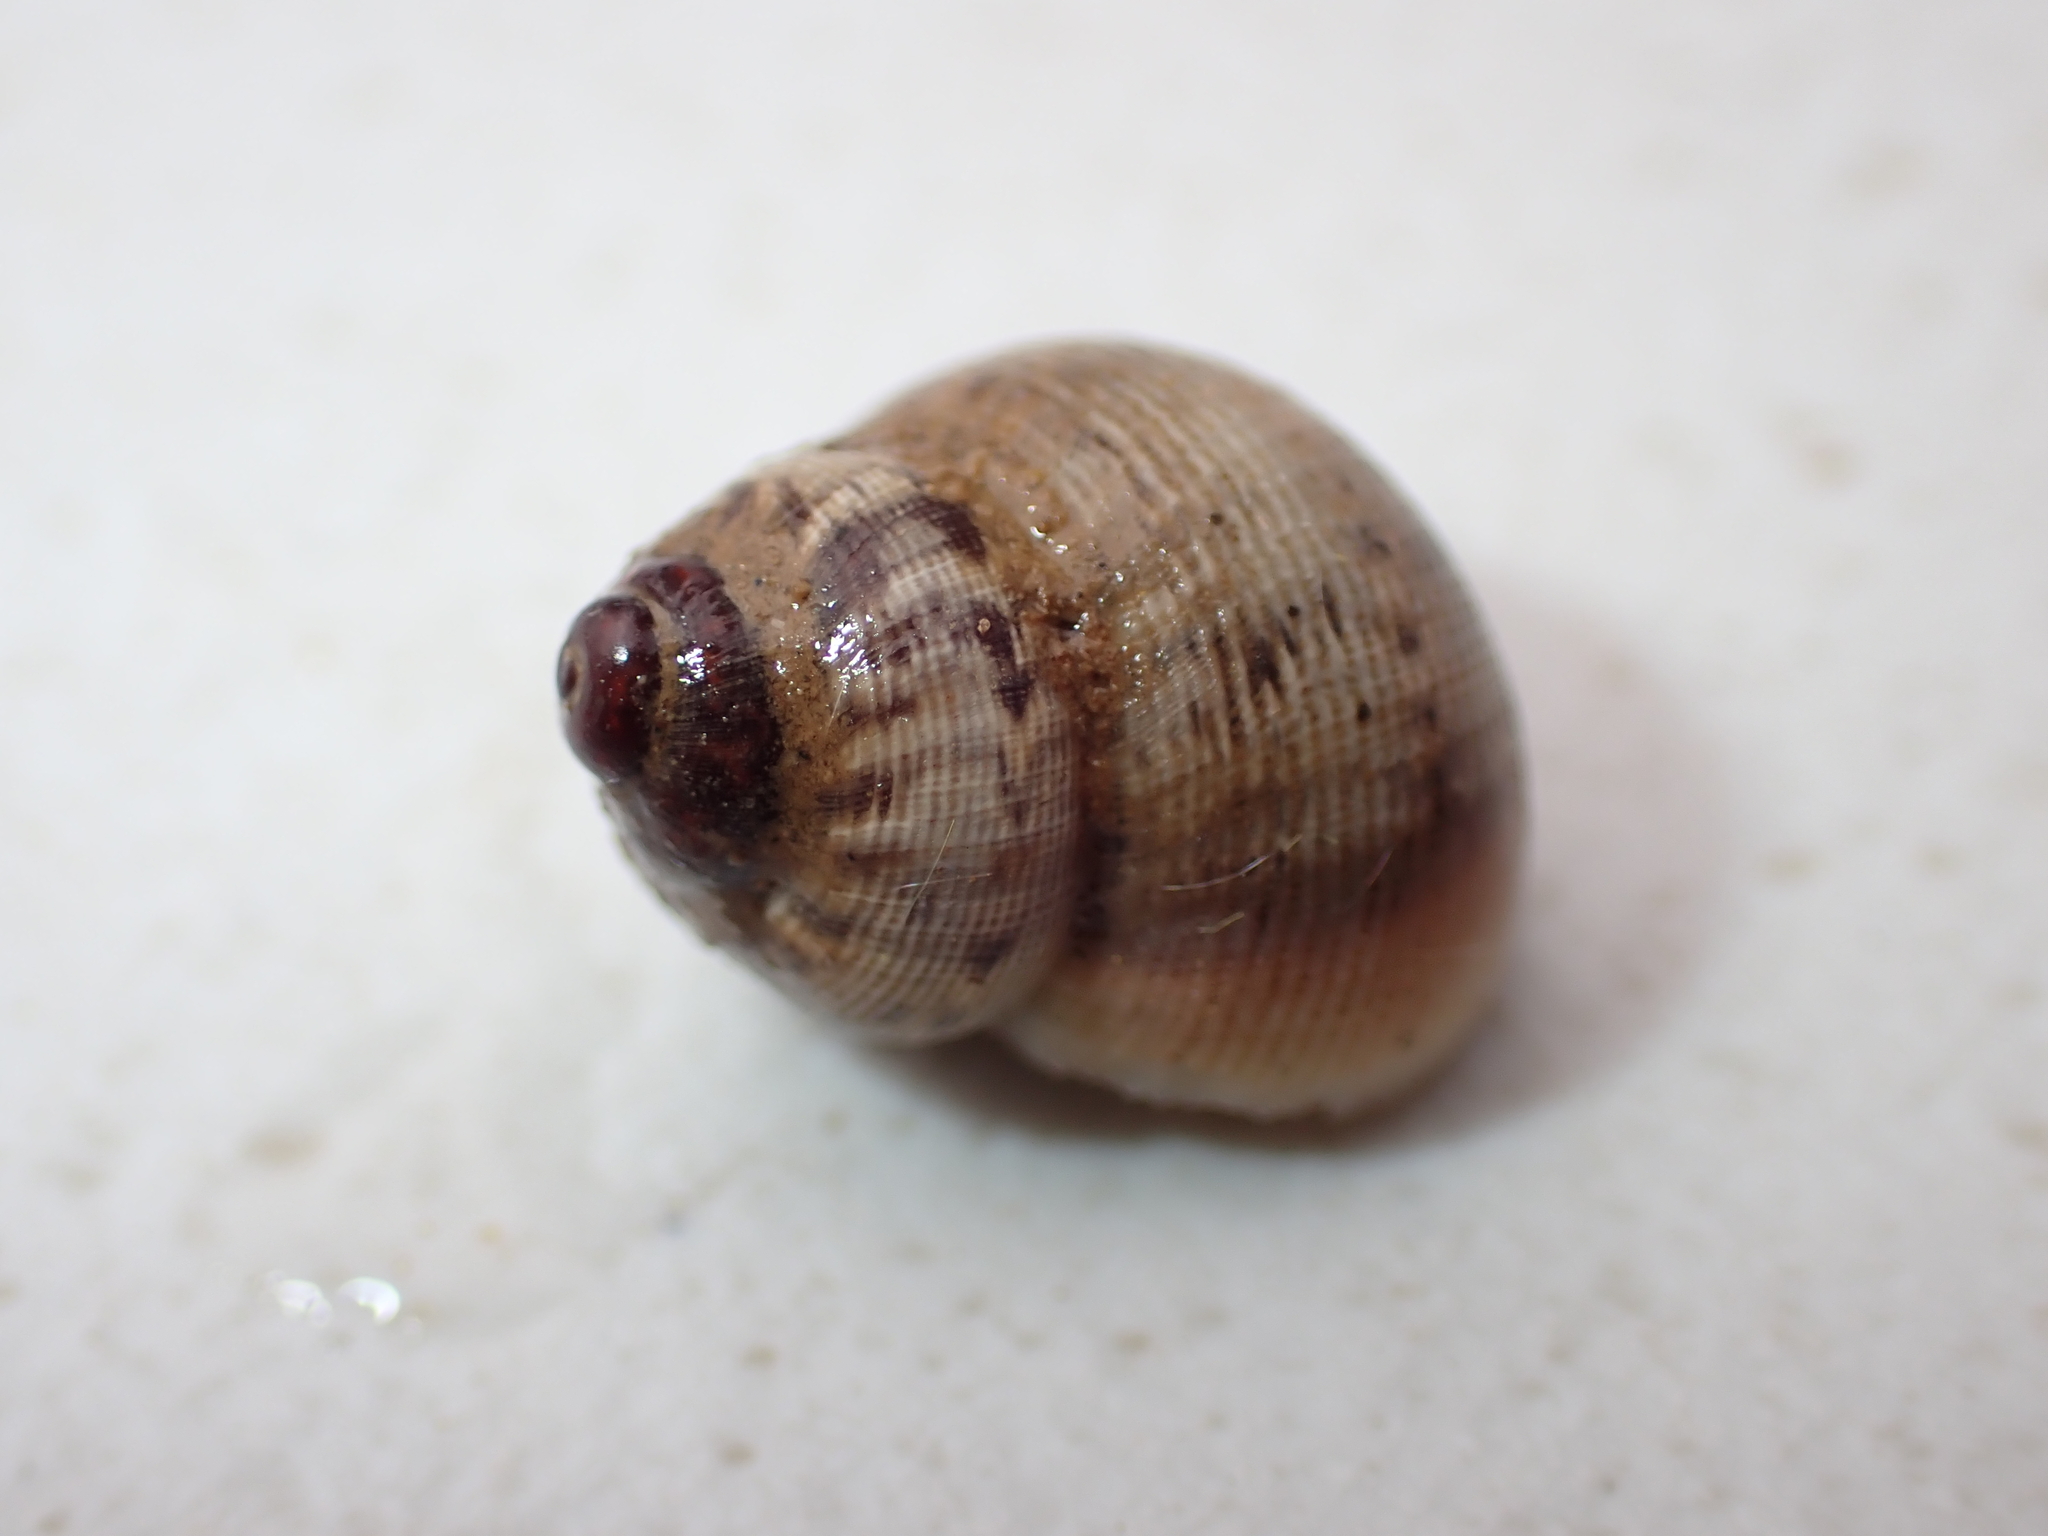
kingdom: Animalia
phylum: Mollusca
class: Gastropoda
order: Littorinimorpha
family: Pomatiidae
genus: Pomatias
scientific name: Pomatias elegans
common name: Red-mouthed snail
